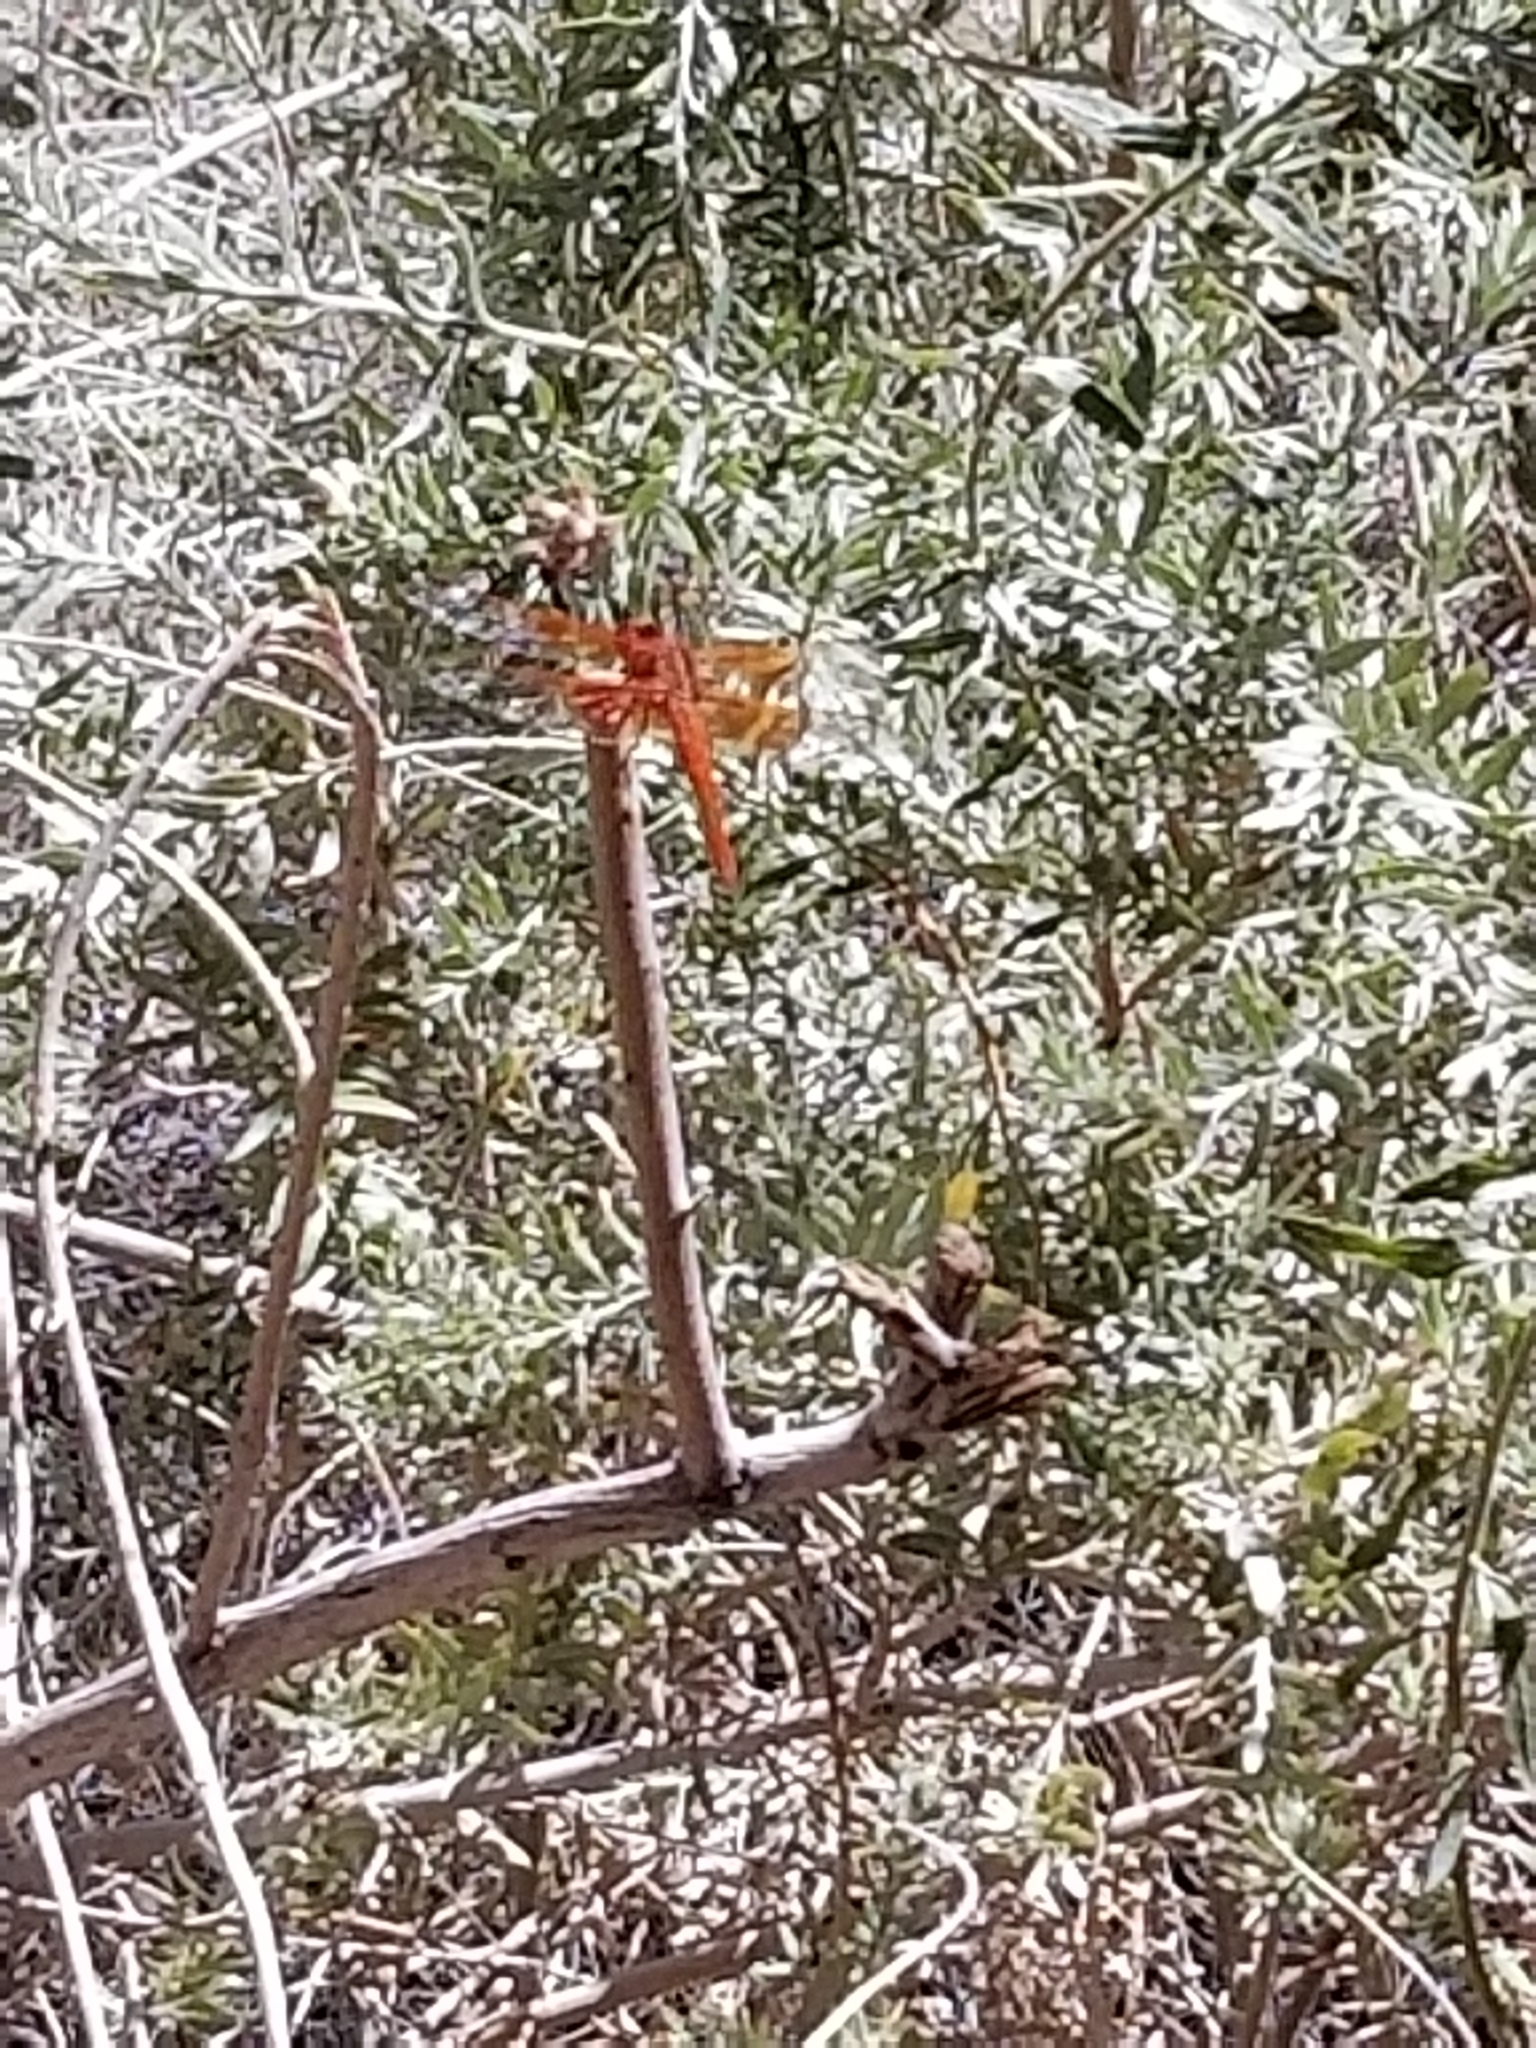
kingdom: Animalia
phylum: Arthropoda
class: Insecta
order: Odonata
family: Libellulidae
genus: Libellula
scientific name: Libellula saturata
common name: Flame skimmer
